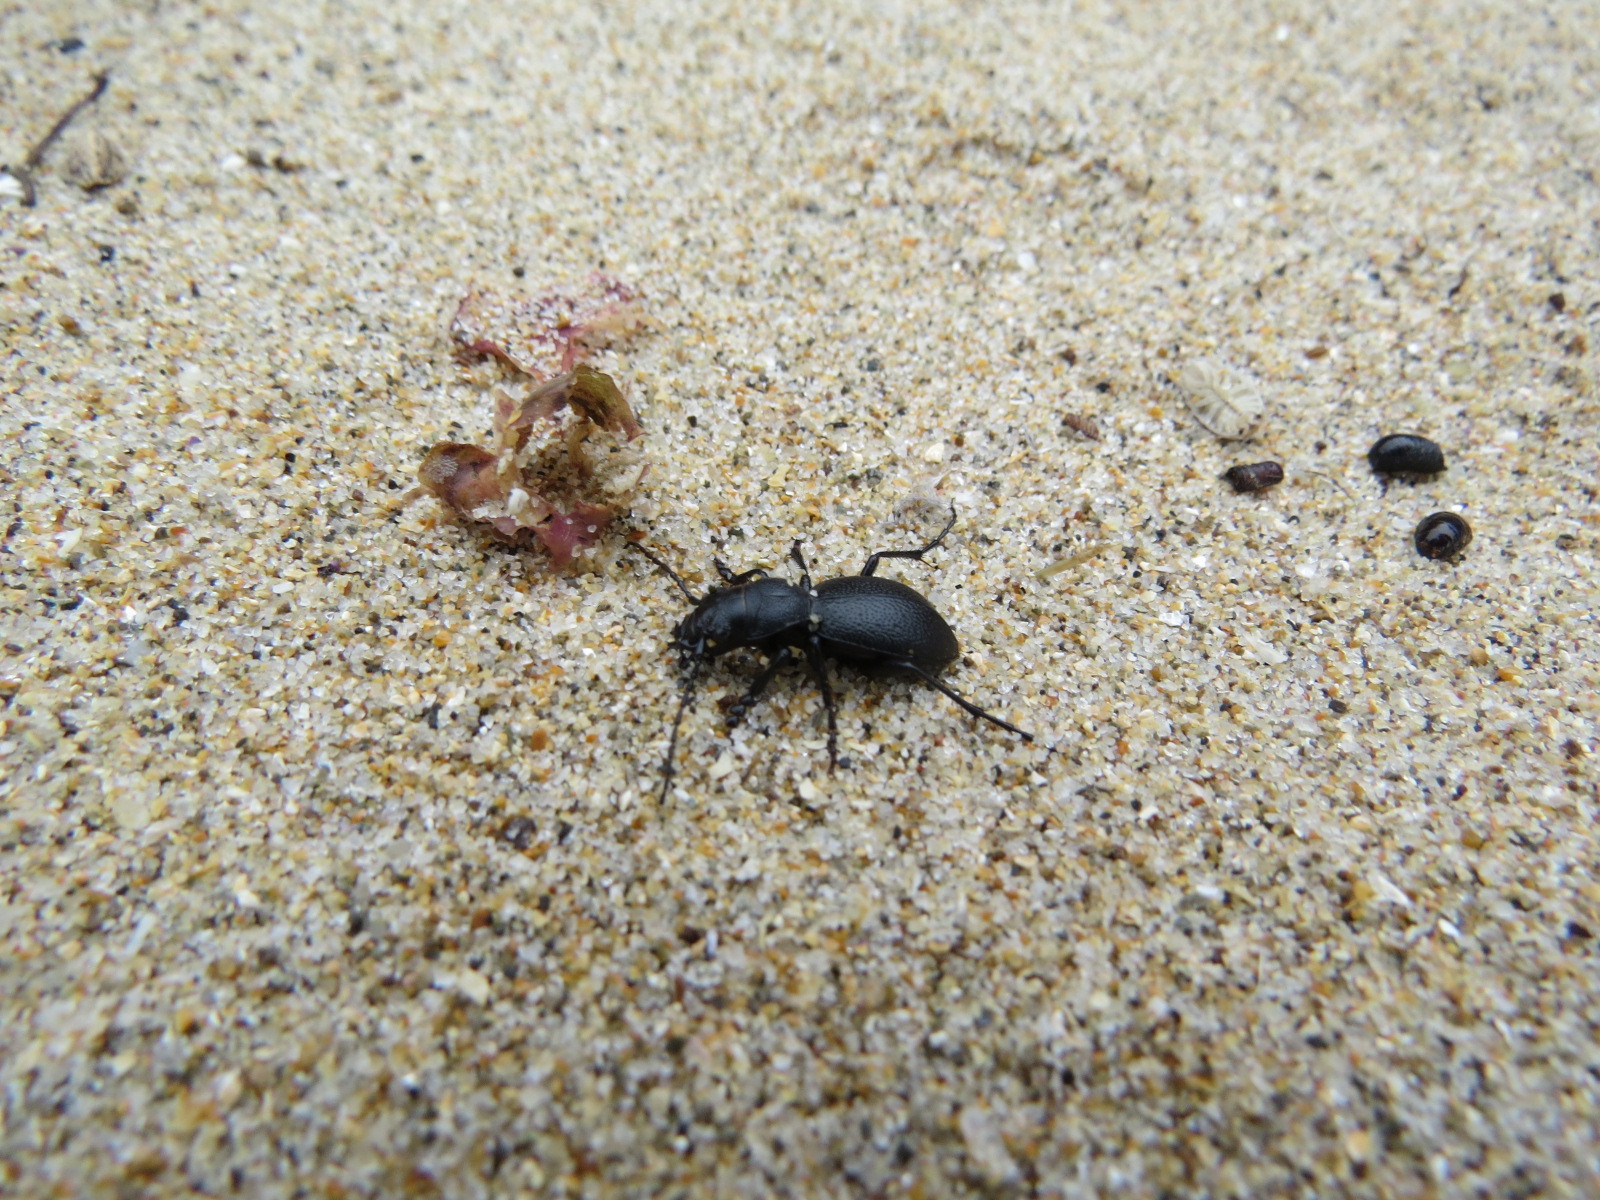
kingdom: Animalia
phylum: Arthropoda
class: Insecta
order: Coleoptera
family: Carabidae
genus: Omus
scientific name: Omus californicus
